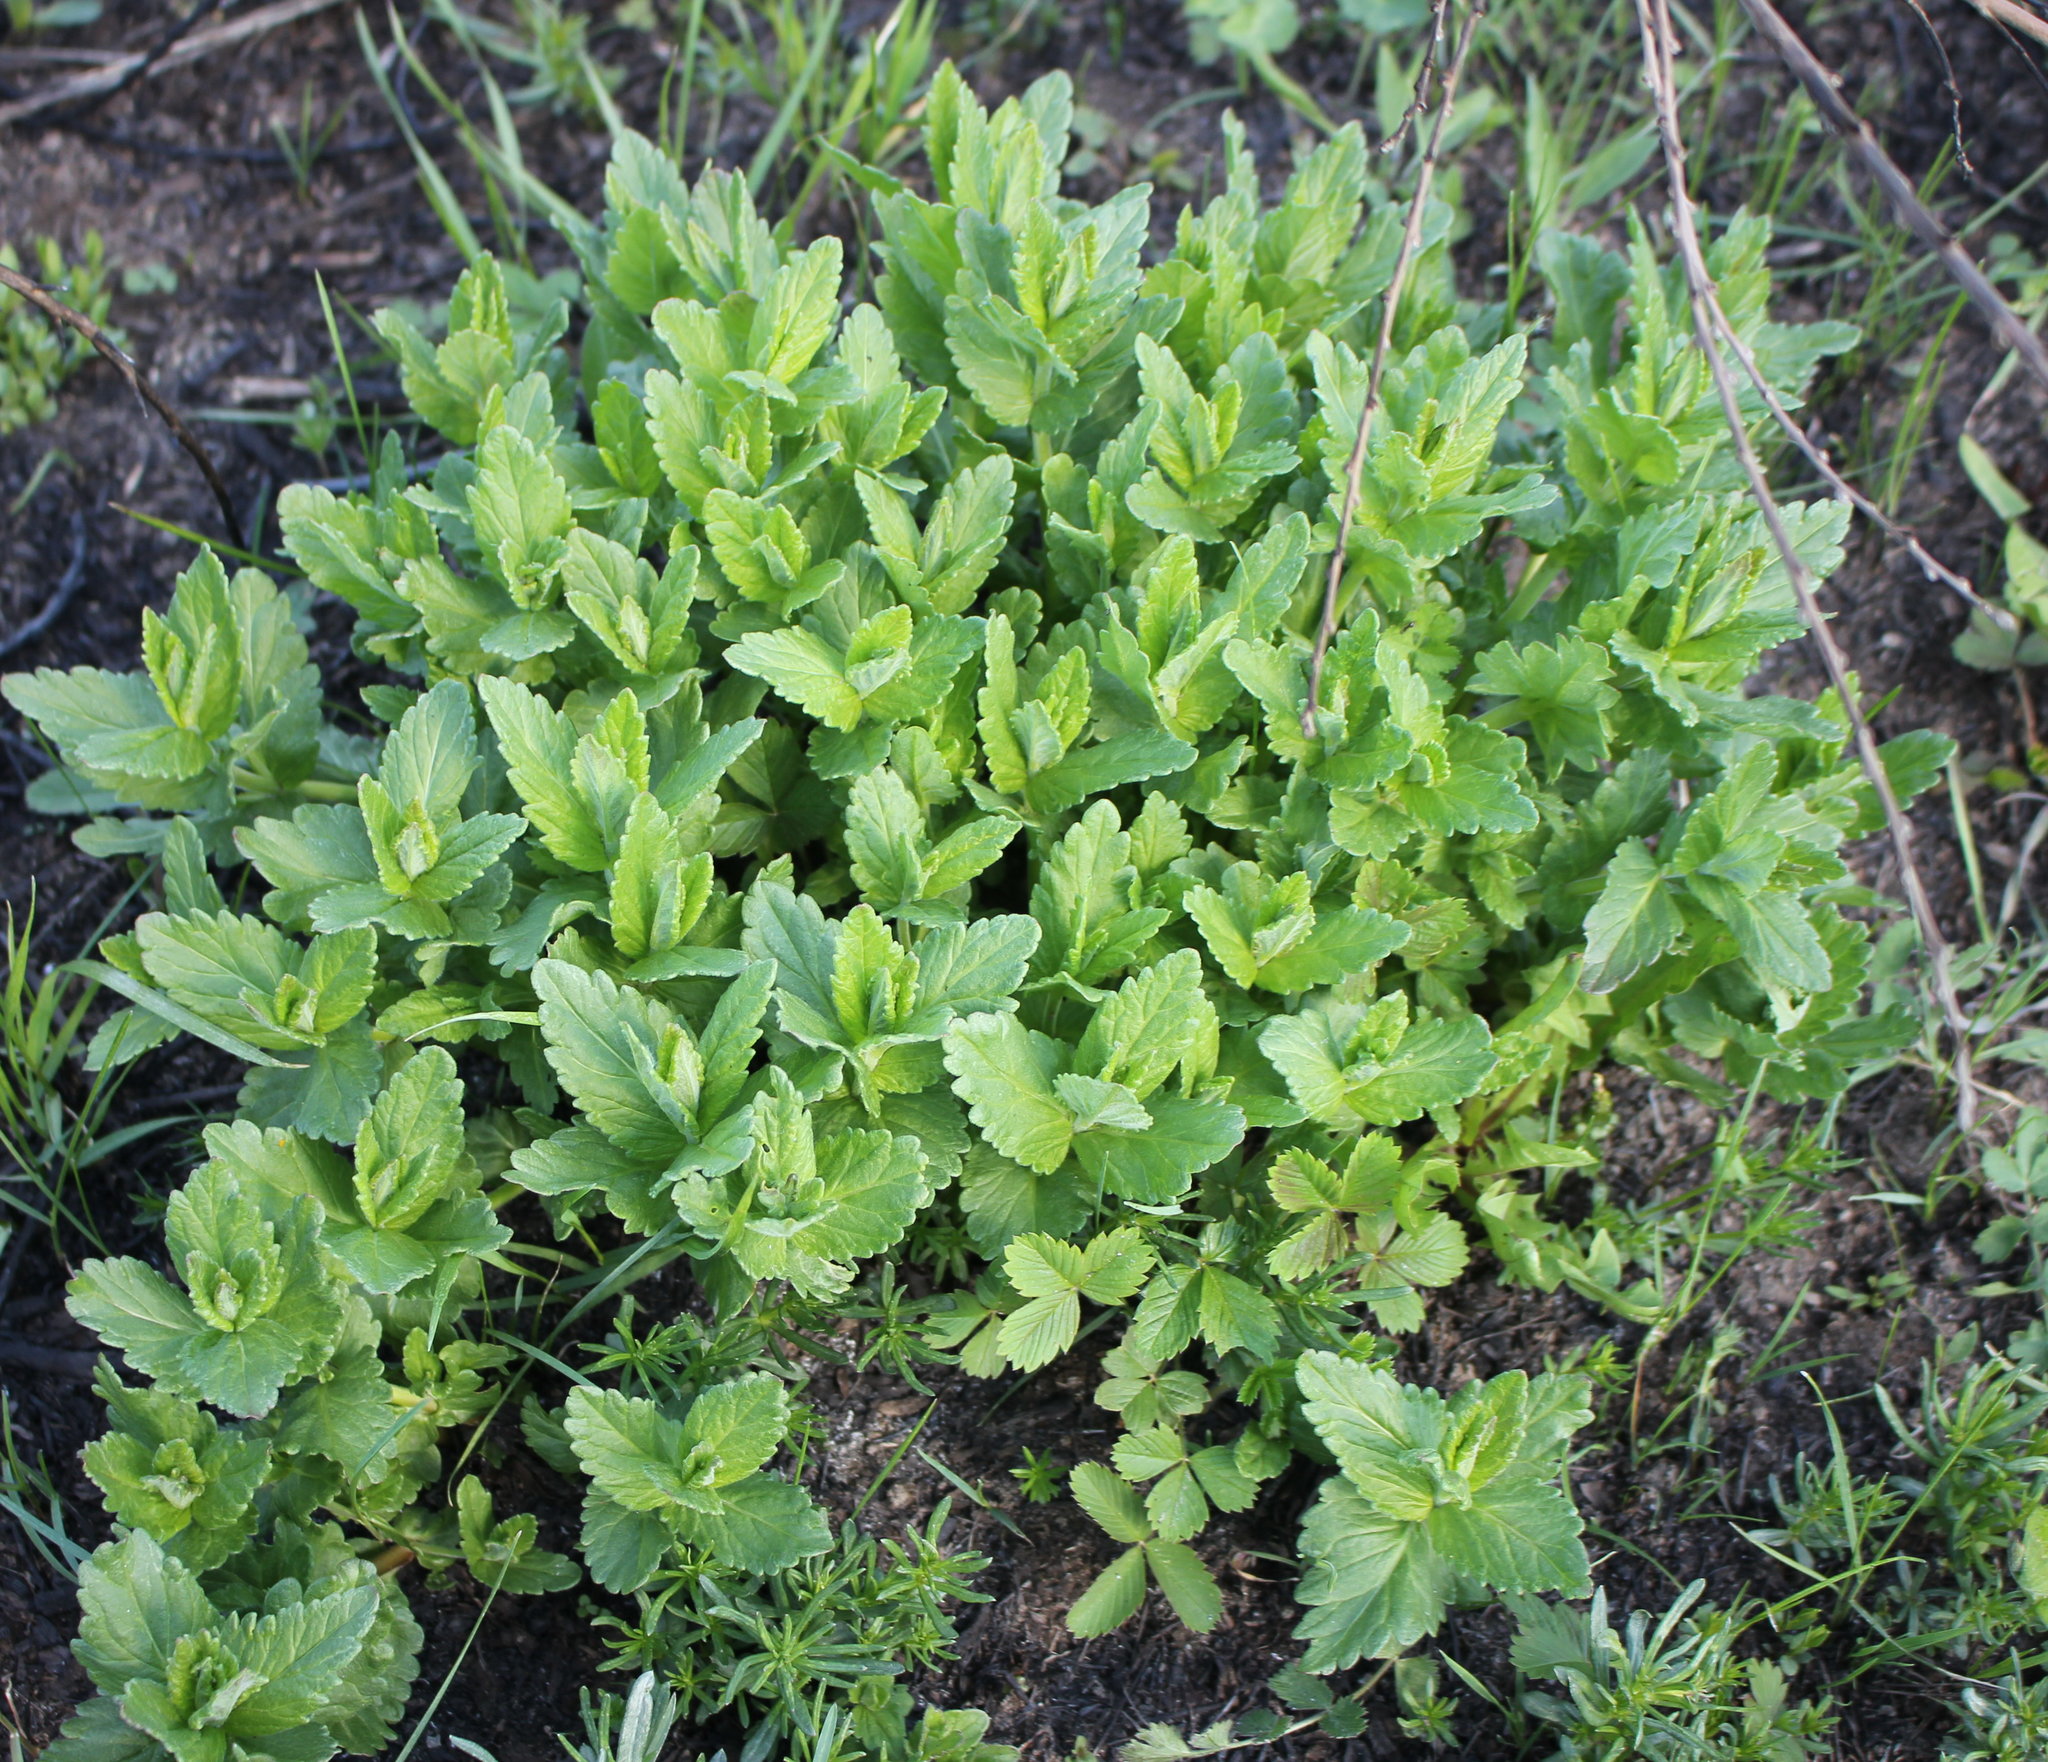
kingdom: Plantae
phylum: Tracheophyta
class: Magnoliopsida
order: Lamiales
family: Plantaginaceae
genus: Veronica
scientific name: Veronica teucrium
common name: Large speedwell
